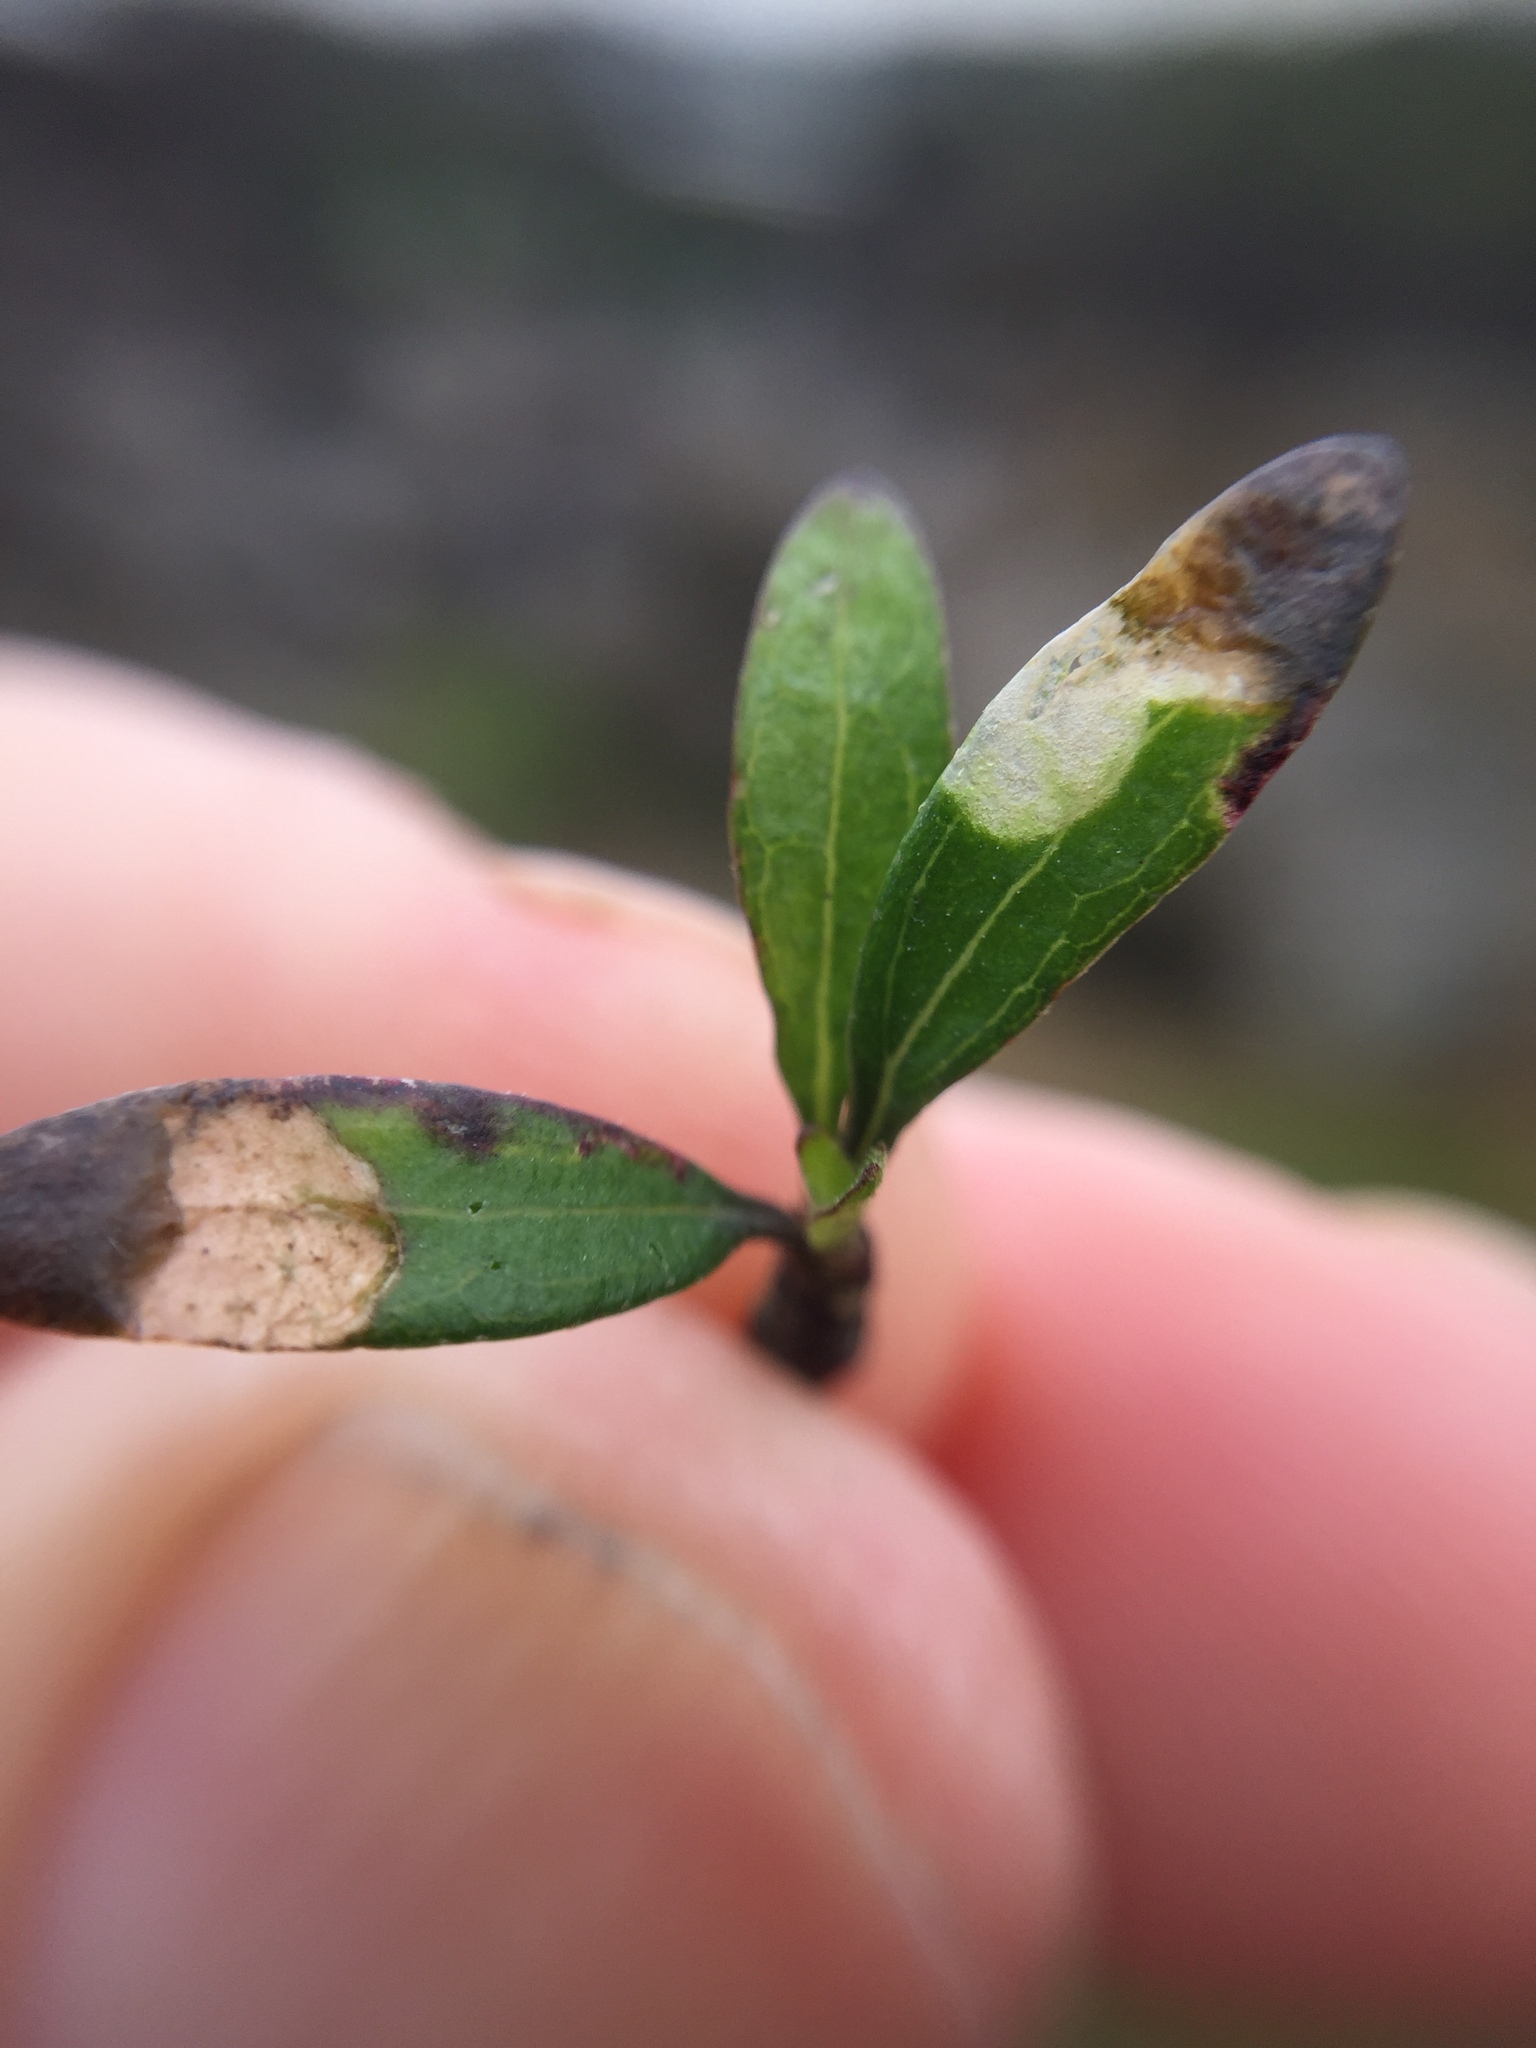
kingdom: Animalia
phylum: Arthropoda
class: Insecta
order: Lepidoptera
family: Nepticulidae
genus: Stigmella
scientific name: Stigmella aigialeia
